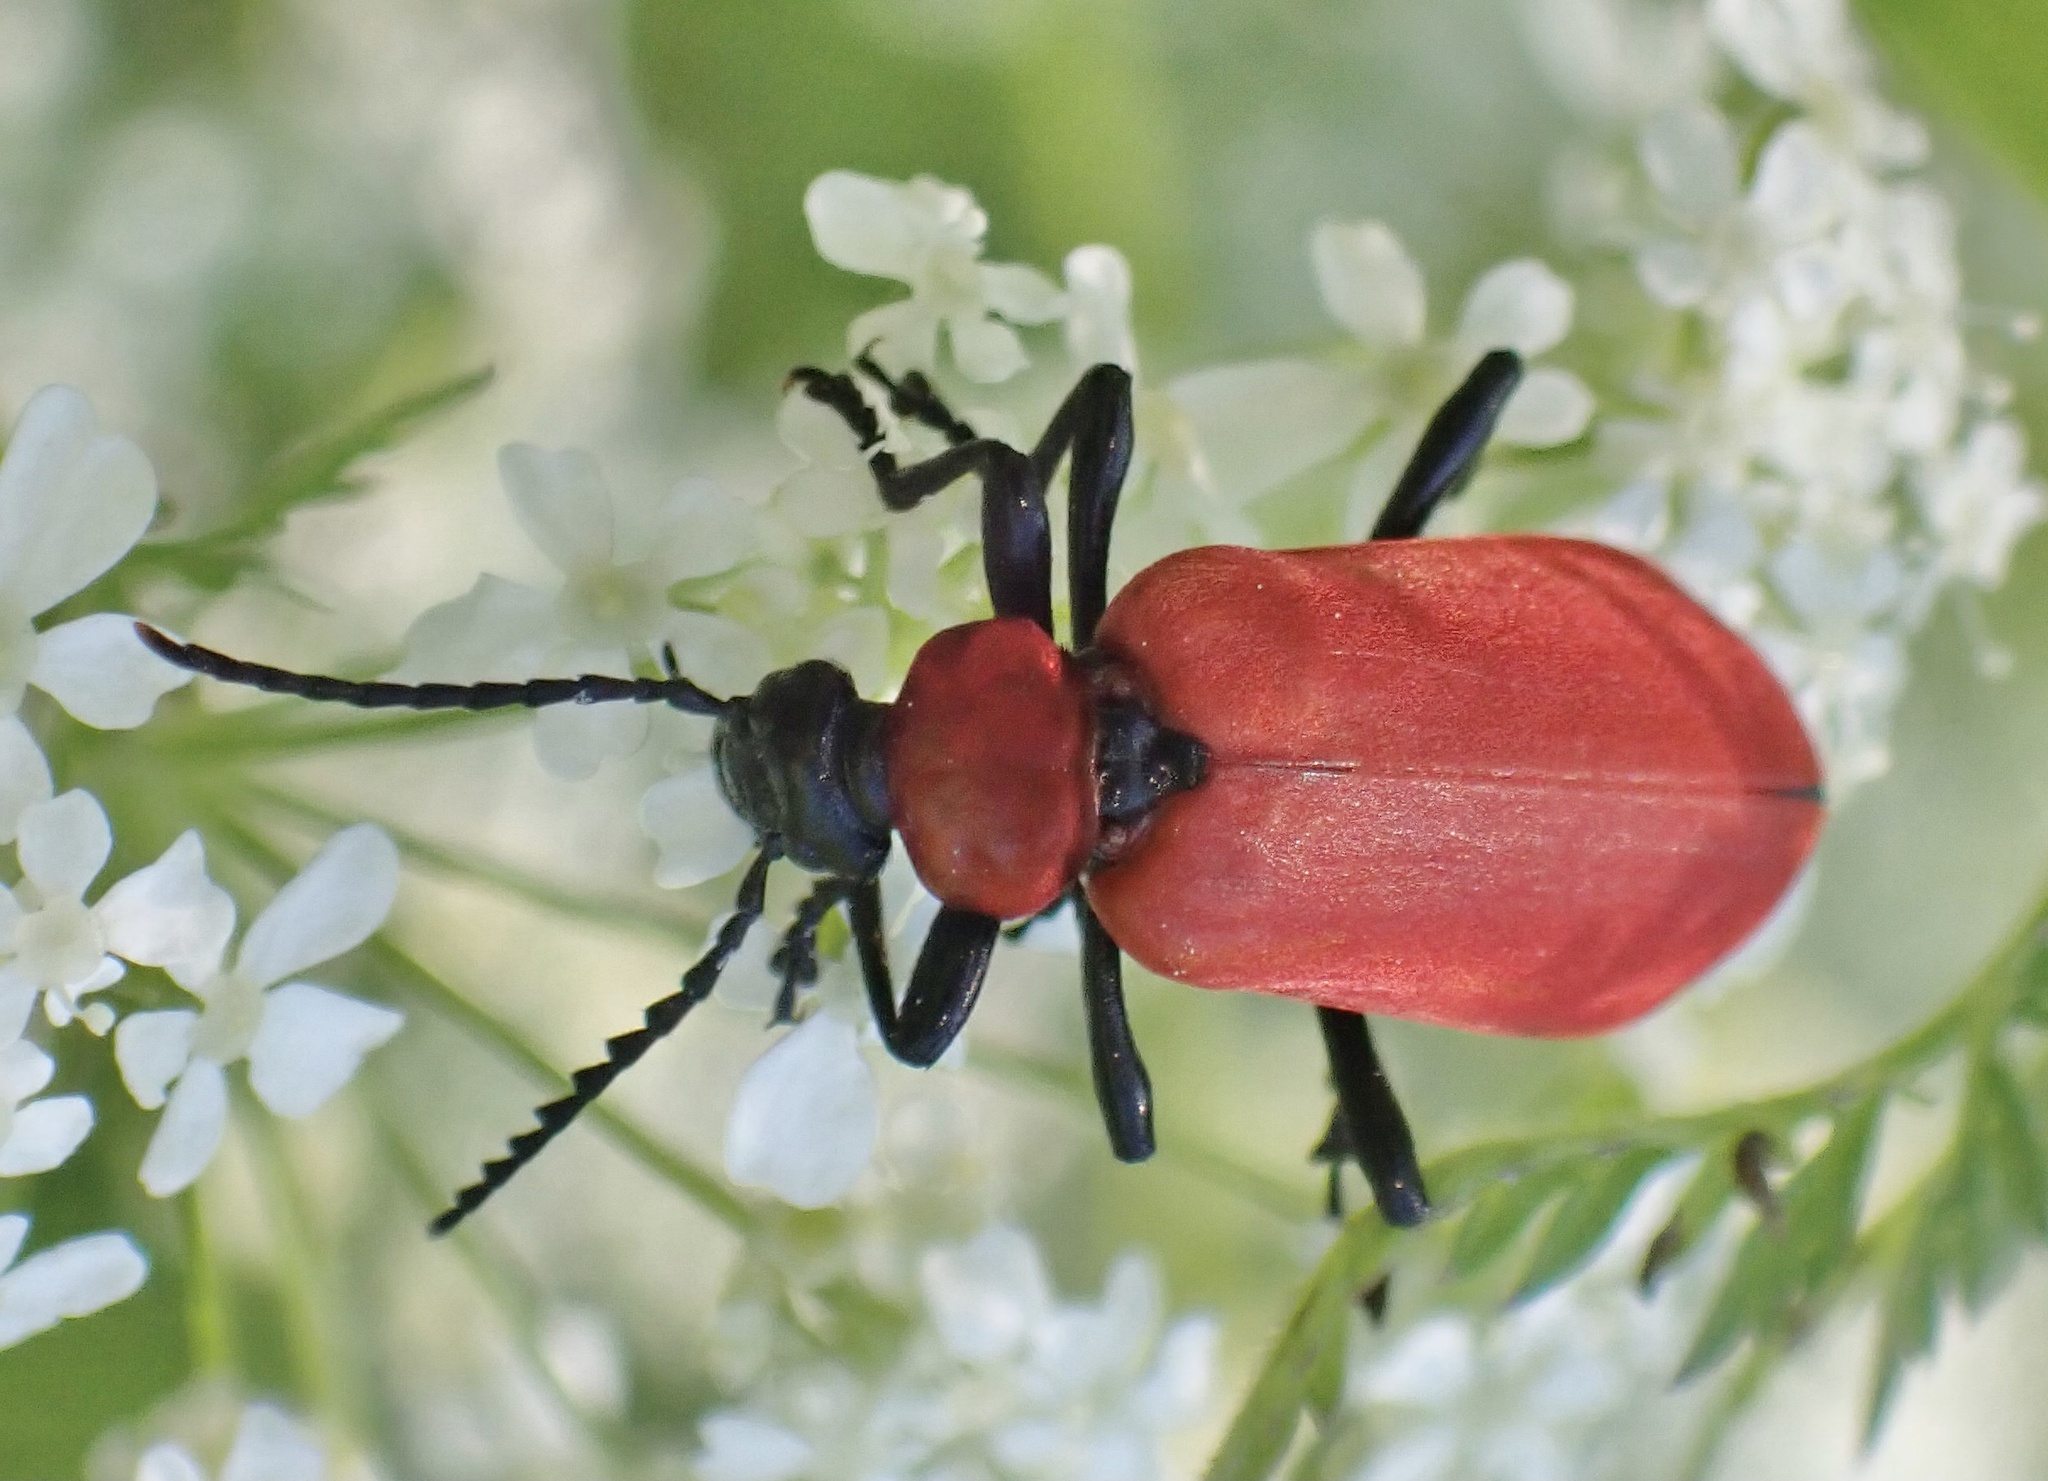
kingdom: Animalia
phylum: Arthropoda
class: Insecta
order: Coleoptera
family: Pyrochroidae
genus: Pyrochroa
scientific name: Pyrochroa coccinea
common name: Black-headed cardinal beetle
